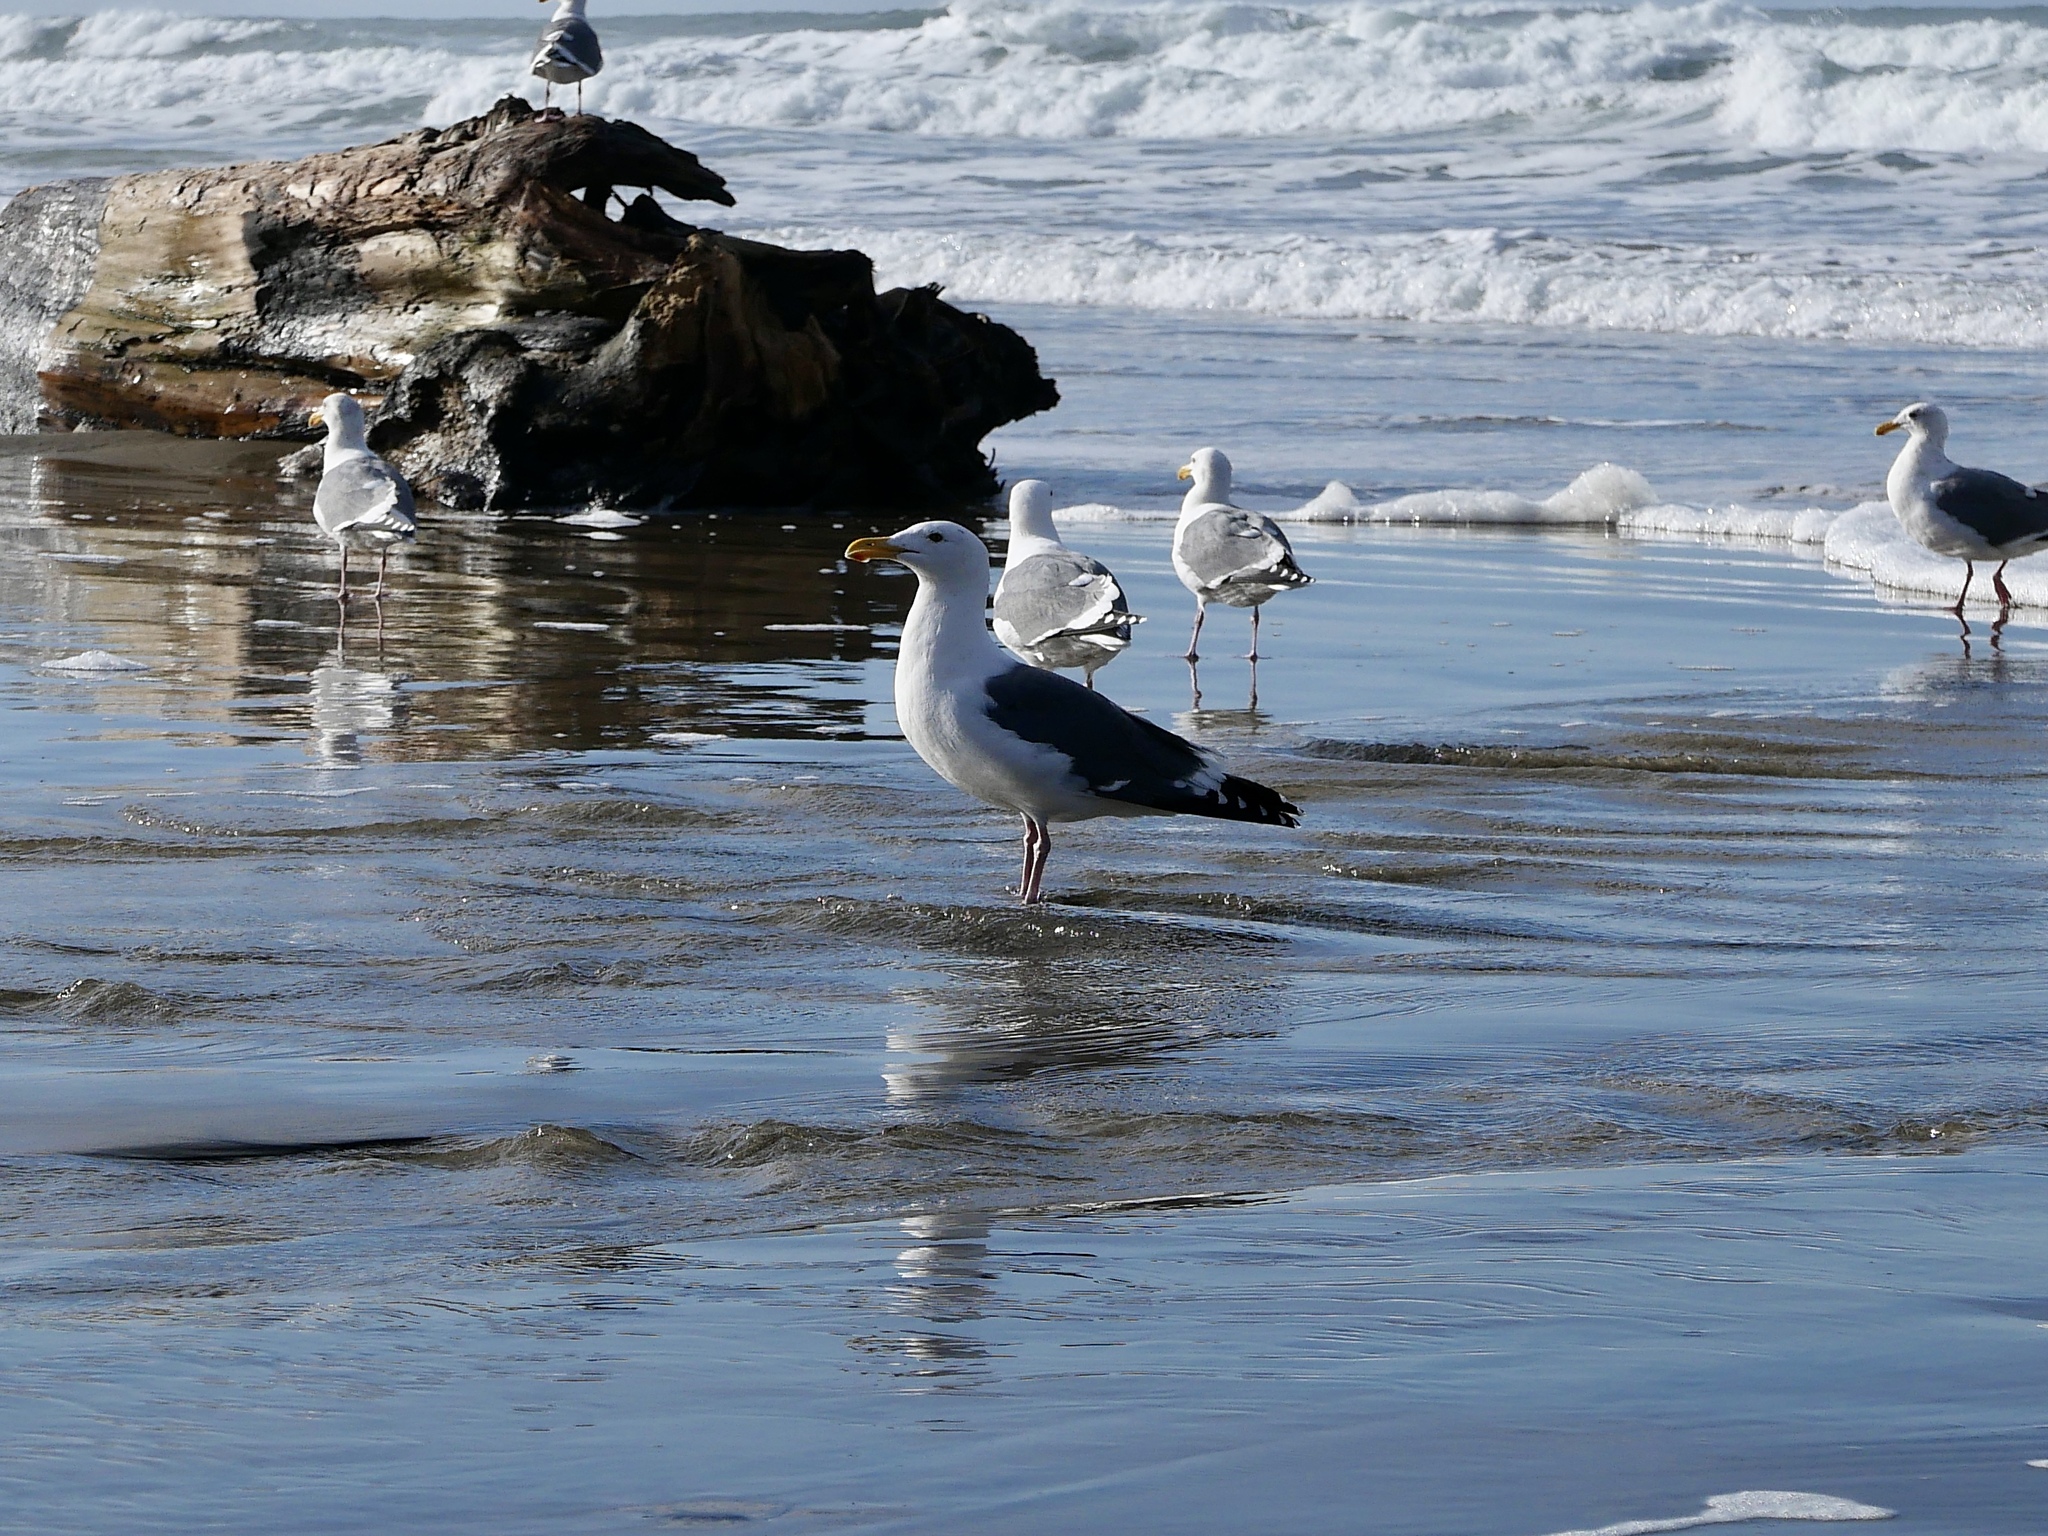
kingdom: Animalia
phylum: Chordata
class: Aves
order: Charadriiformes
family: Laridae
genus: Larus
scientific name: Larus occidentalis
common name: Western gull
